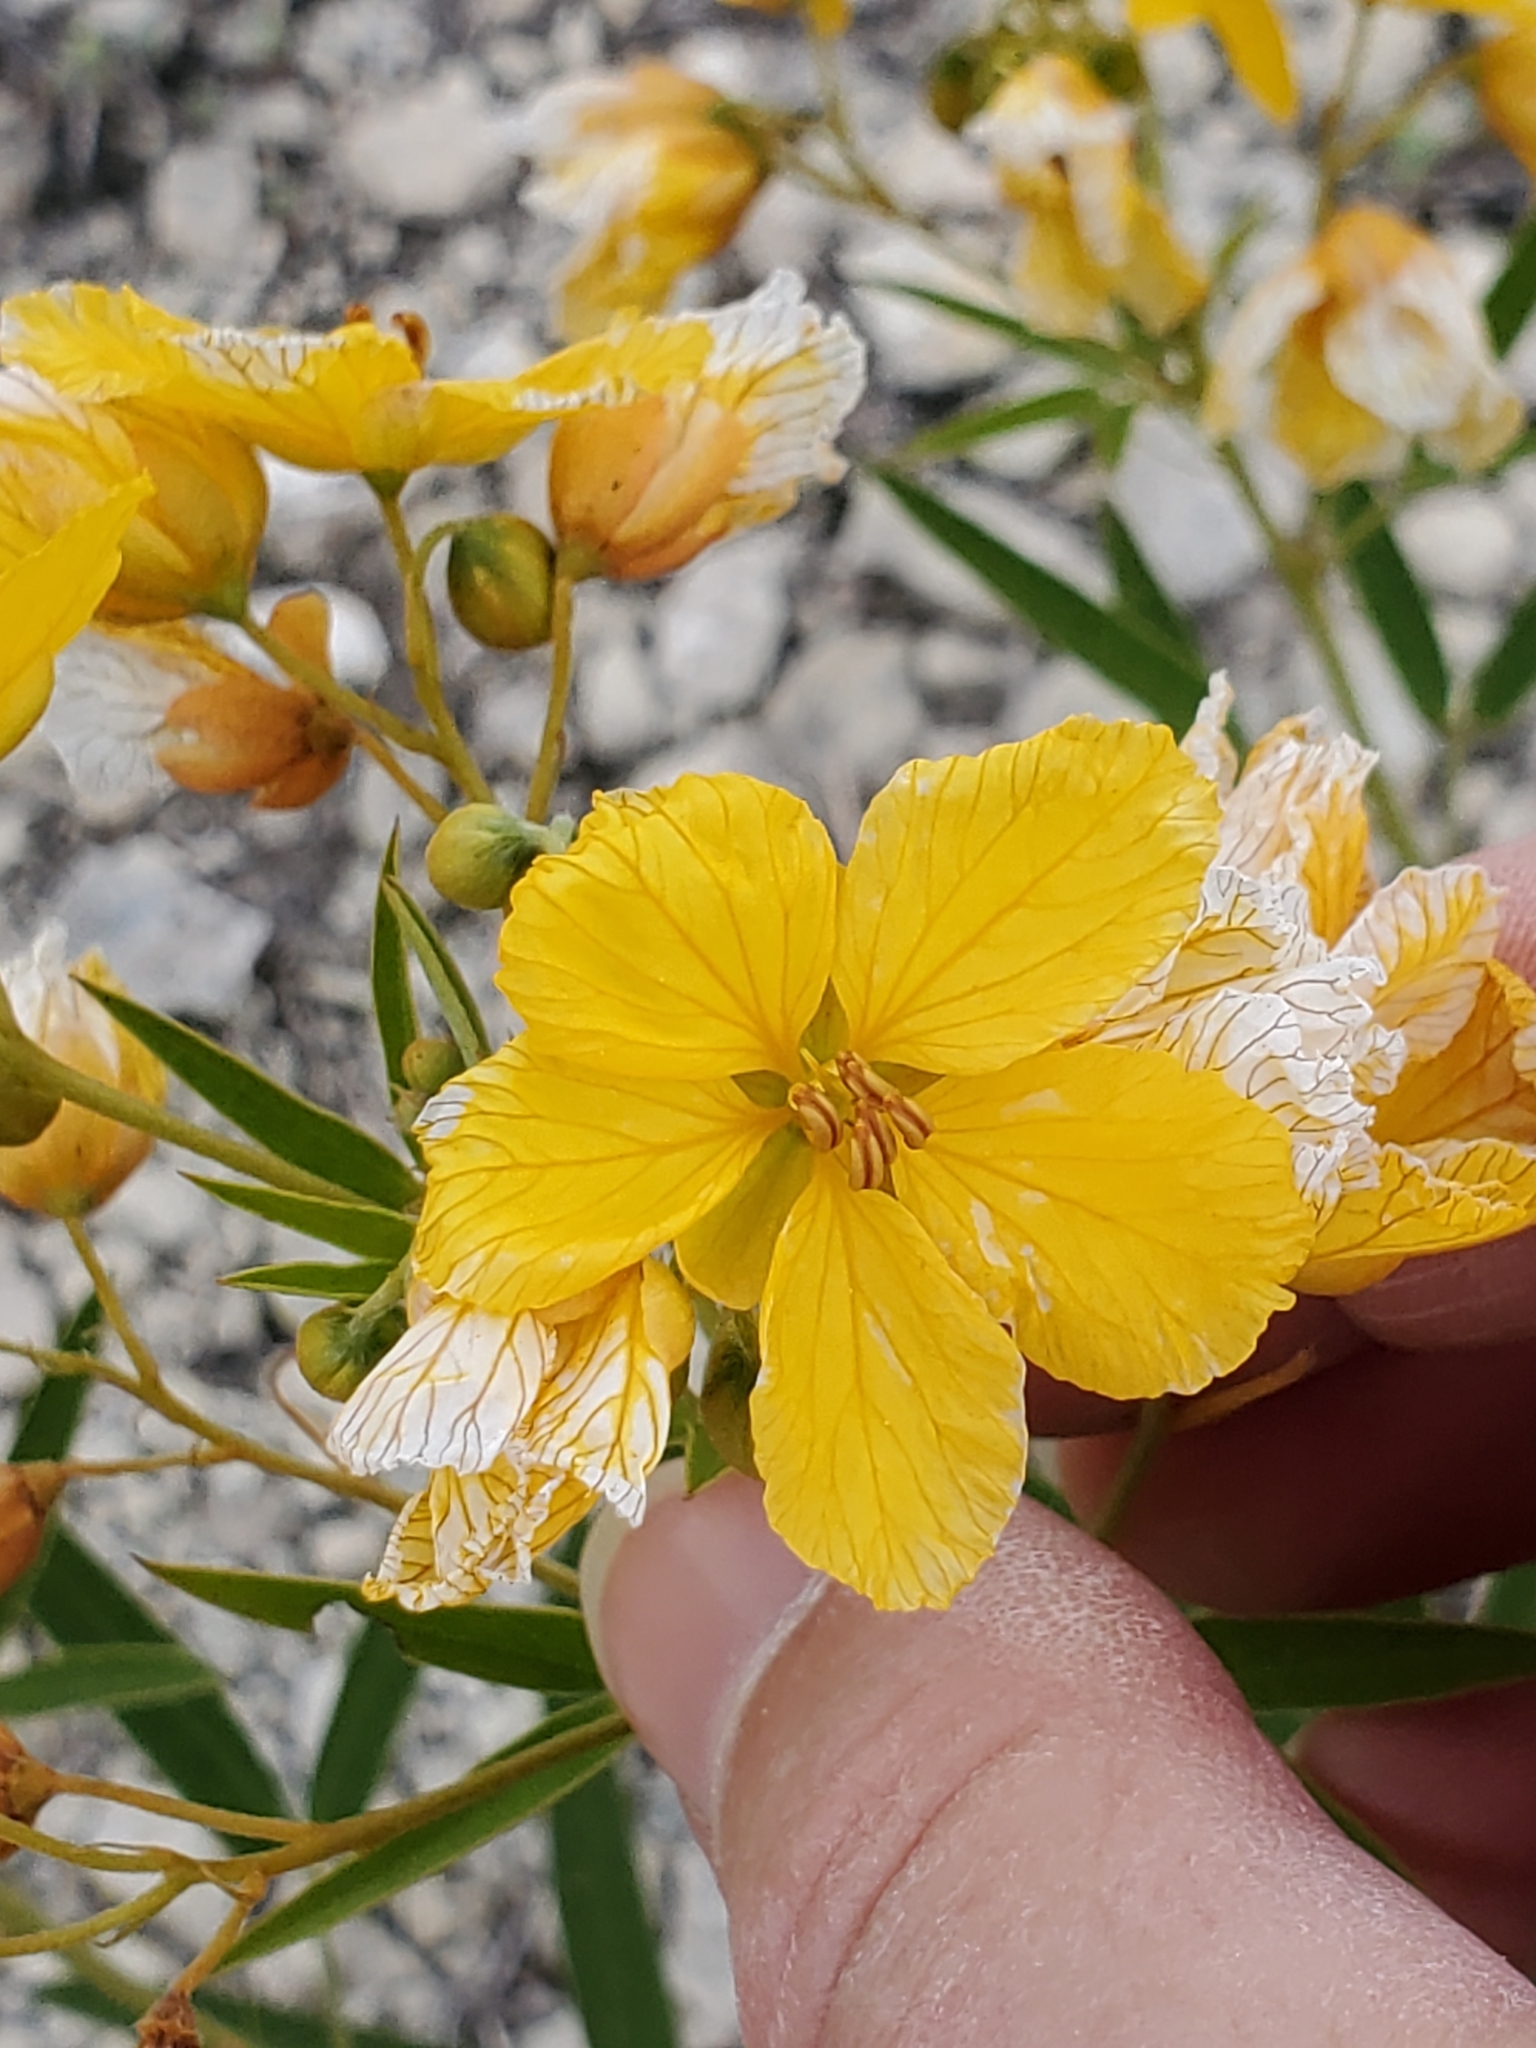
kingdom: Plantae
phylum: Tracheophyta
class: Magnoliopsida
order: Fabales
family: Fabaceae
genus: Senna
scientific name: Senna roemeriana
